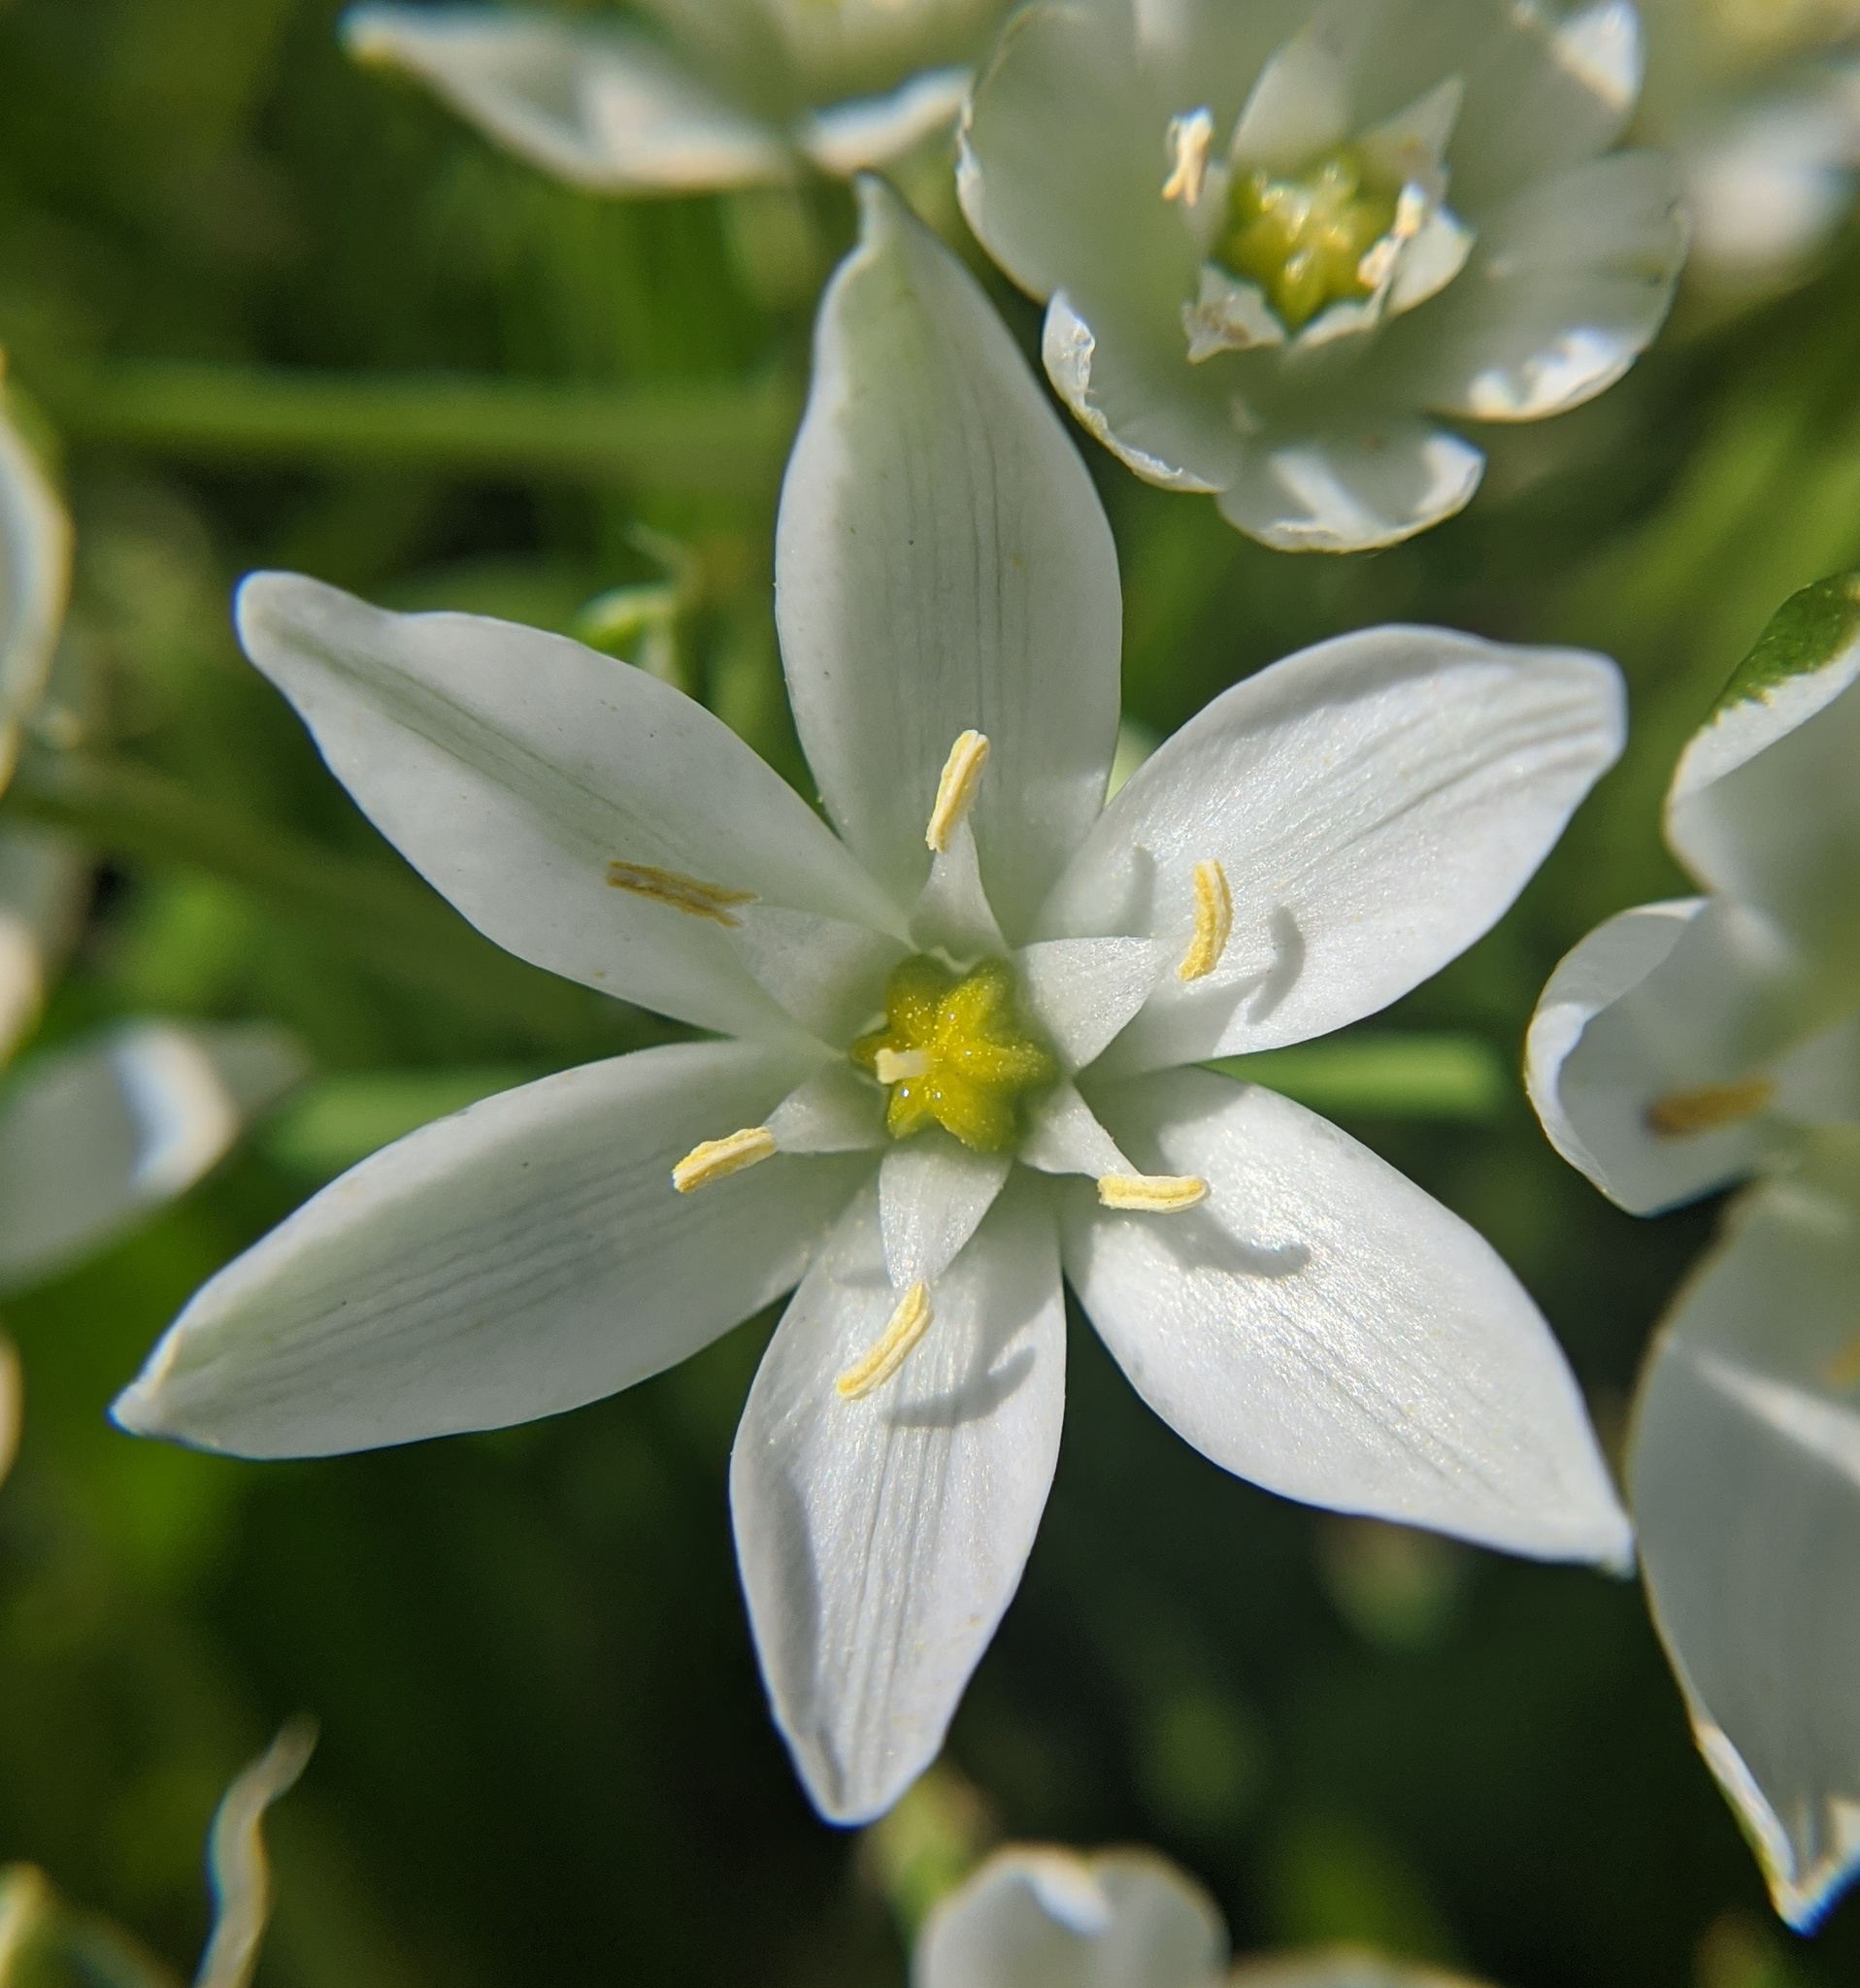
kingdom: Plantae
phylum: Tracheophyta
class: Liliopsida
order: Asparagales
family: Asparagaceae
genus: Ornithogalum
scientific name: Ornithogalum umbellatum
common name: Garden star-of-bethlehem
